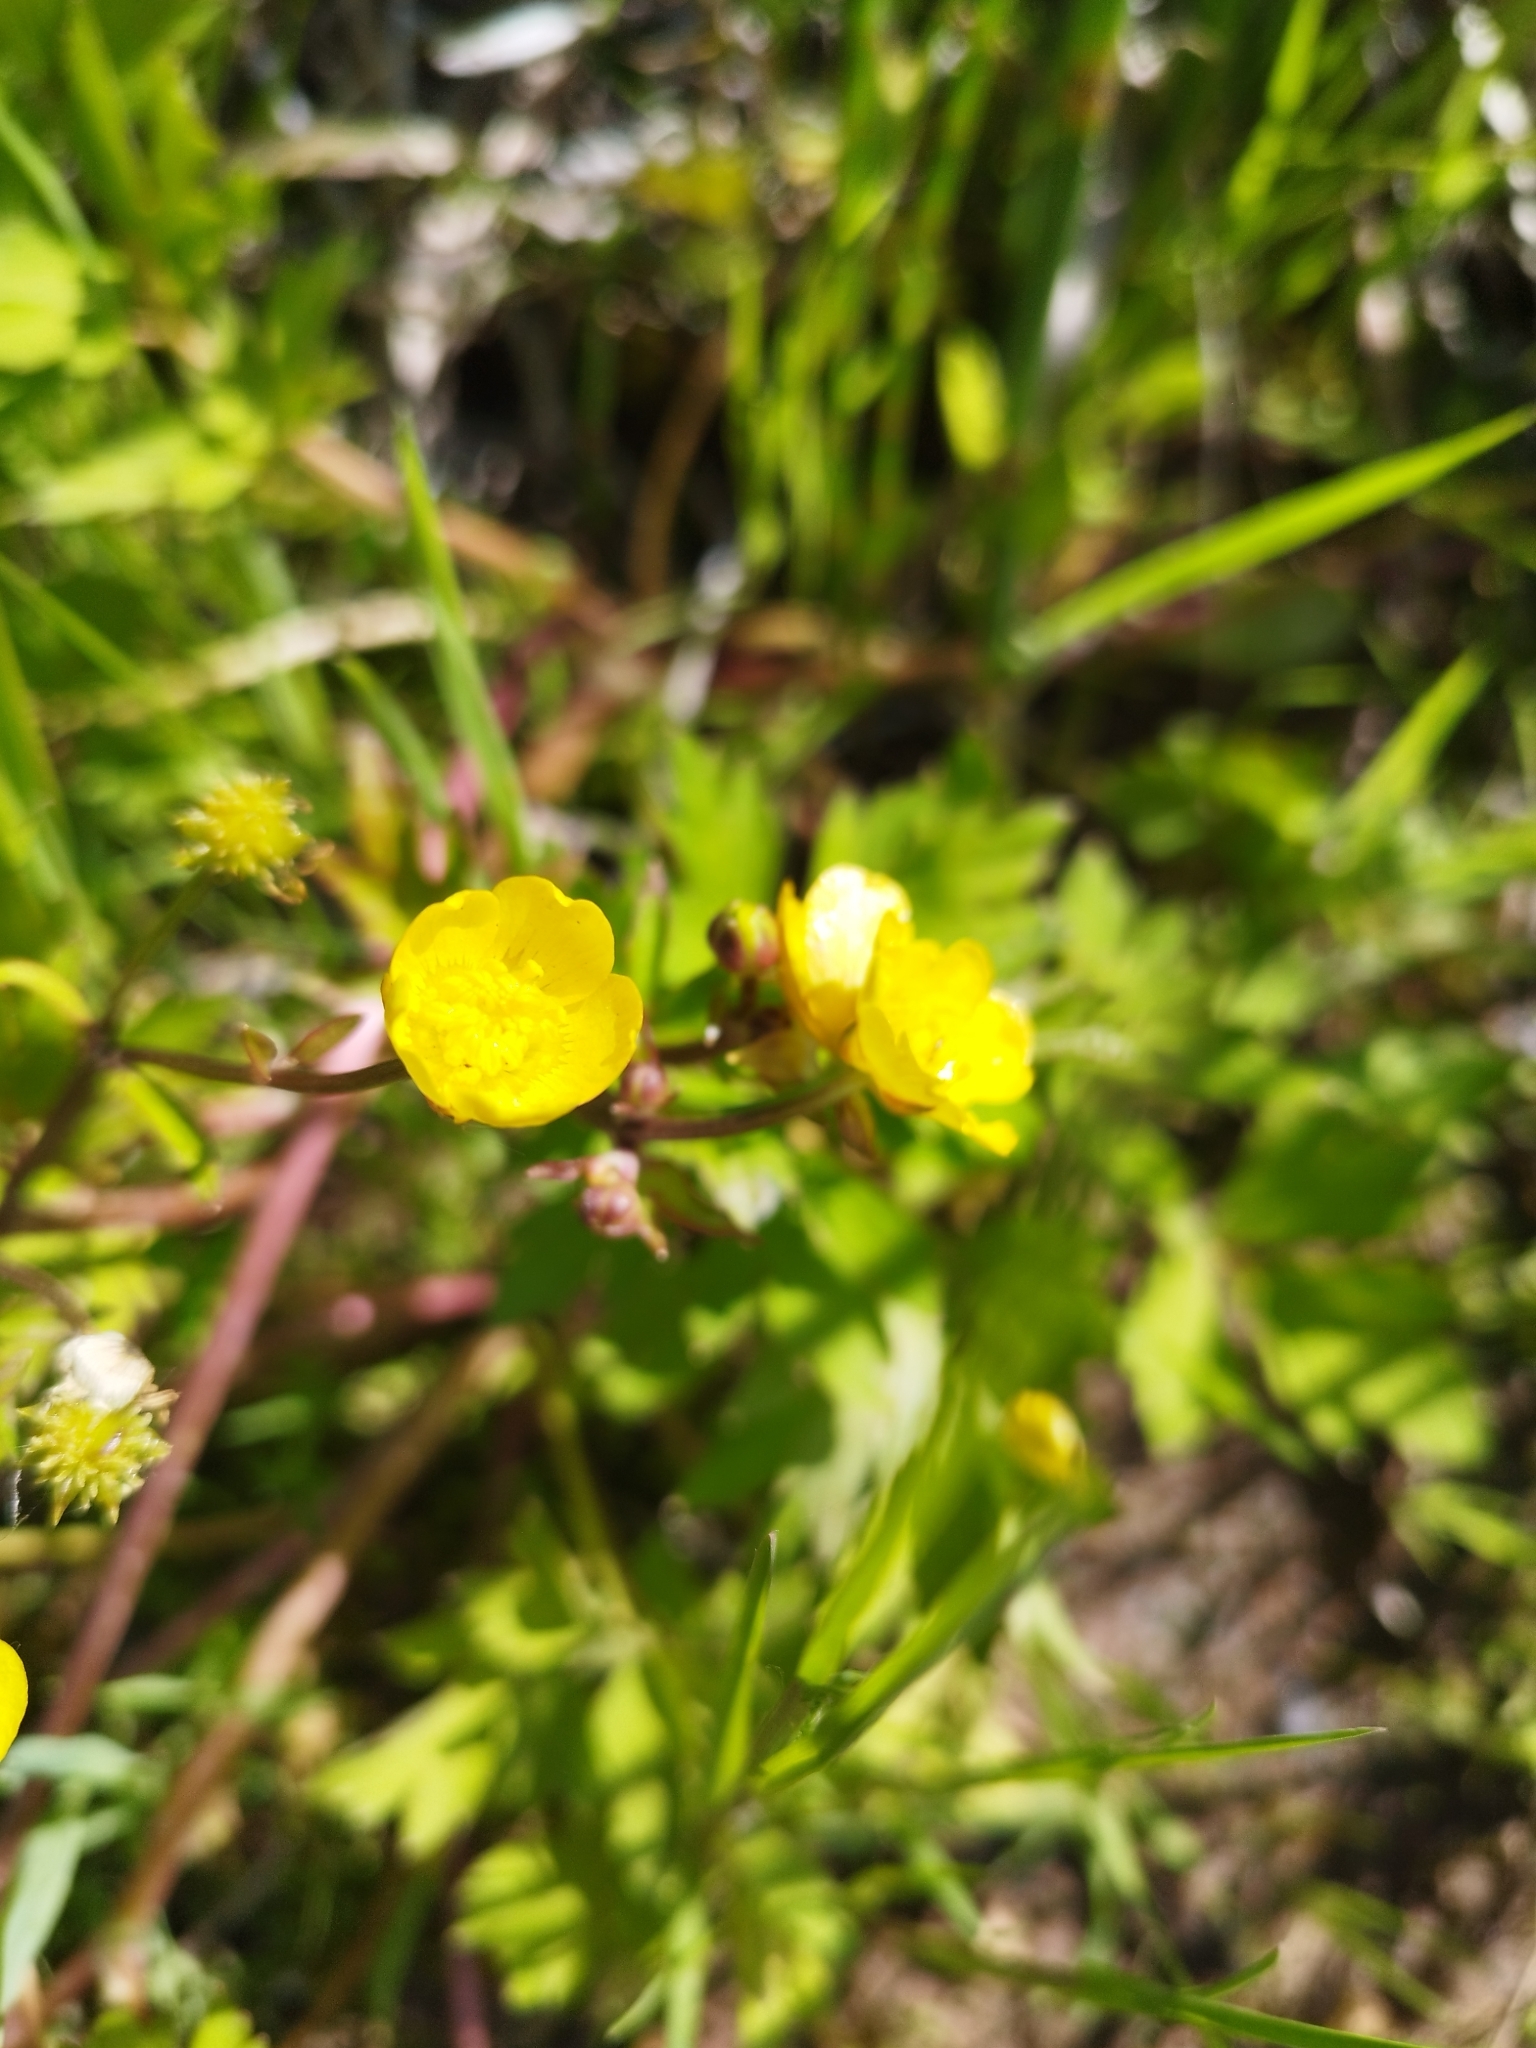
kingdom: Plantae
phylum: Tracheophyta
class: Magnoliopsida
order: Ranunculales
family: Ranunculaceae
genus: Ranunculus
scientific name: Ranunculus repens
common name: Creeping buttercup
